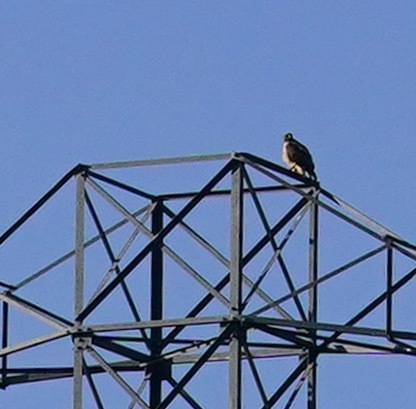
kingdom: Animalia
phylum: Chordata
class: Aves
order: Accipitriformes
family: Accipitridae
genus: Buteo
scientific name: Buteo jamaicensis
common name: Red-tailed hawk
